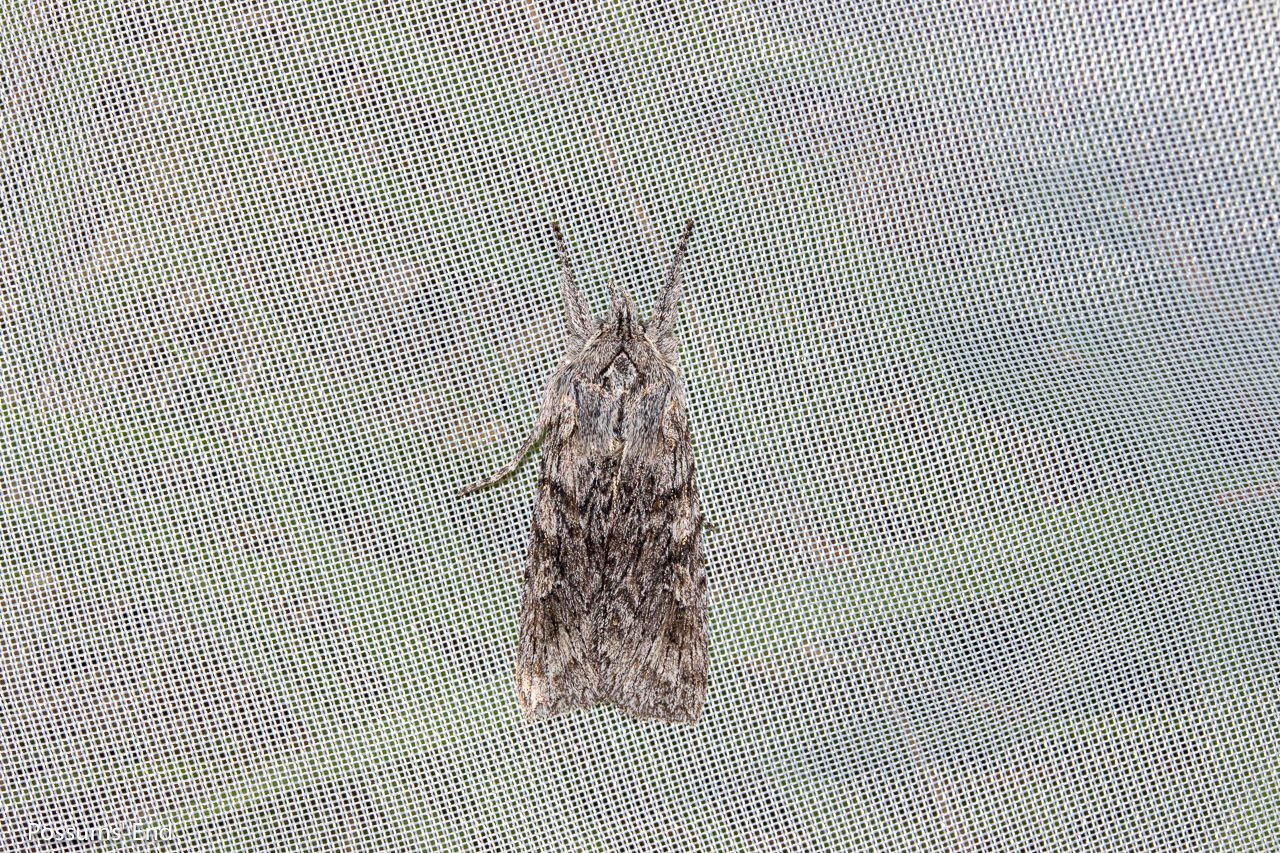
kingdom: Animalia
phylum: Arthropoda
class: Insecta
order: Lepidoptera
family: Noctuidae
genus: Physetica
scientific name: Physetica phricias
